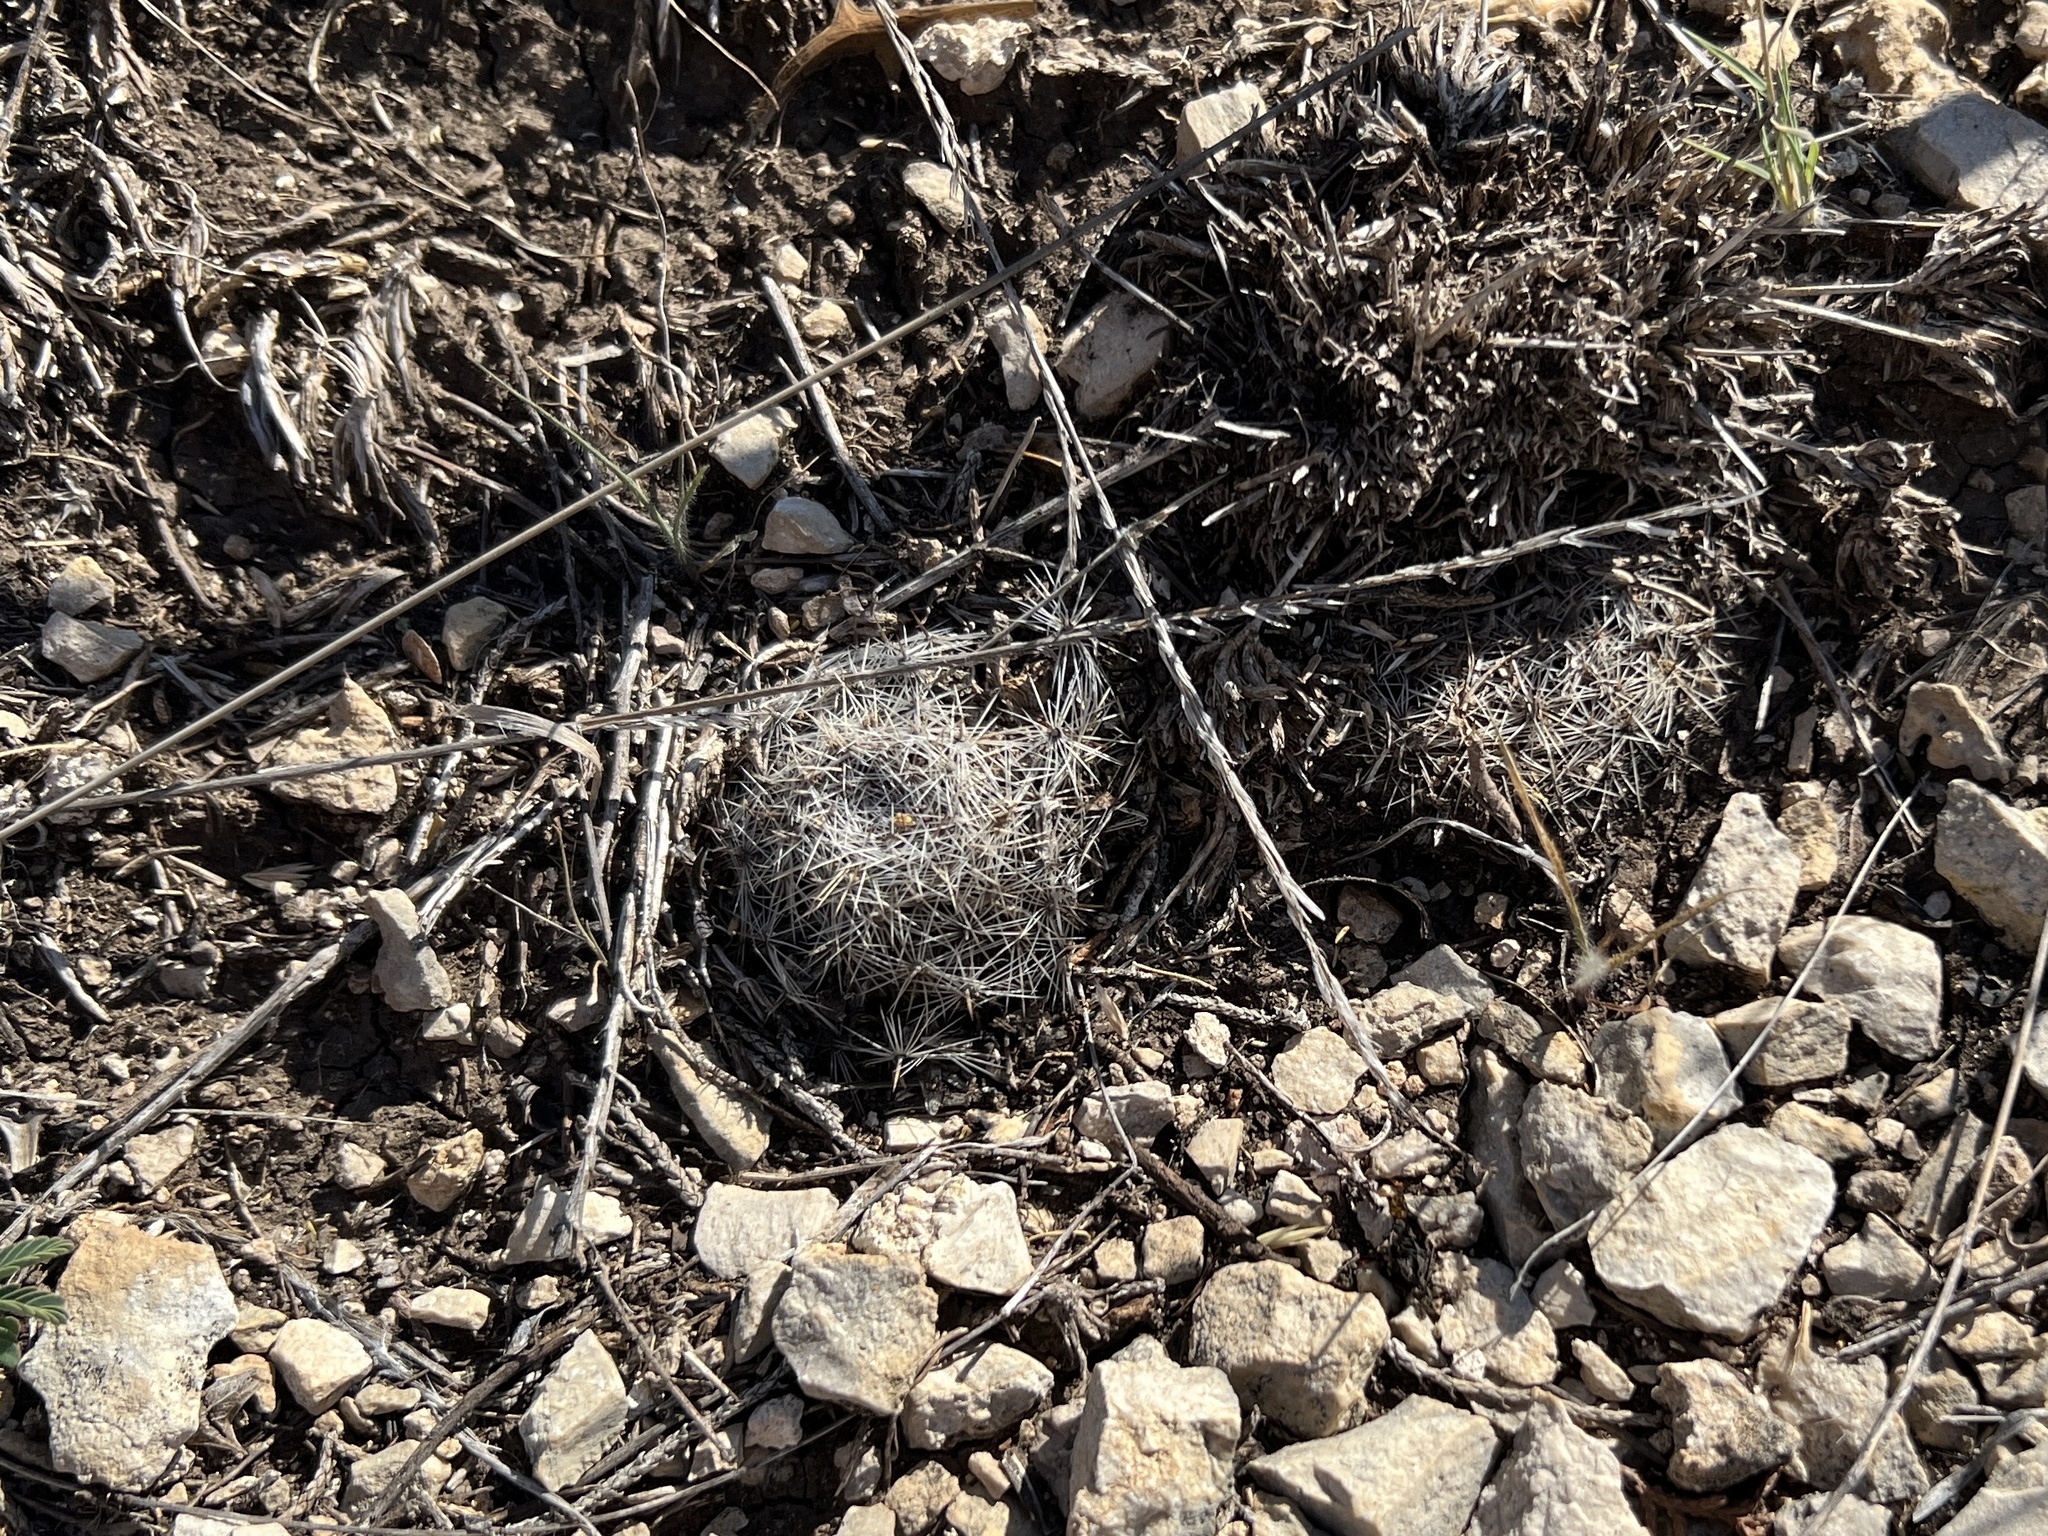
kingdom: Plantae
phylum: Tracheophyta
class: Magnoliopsida
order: Caryophyllales
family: Cactaceae
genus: Coryphantha
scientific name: Coryphantha echinus
